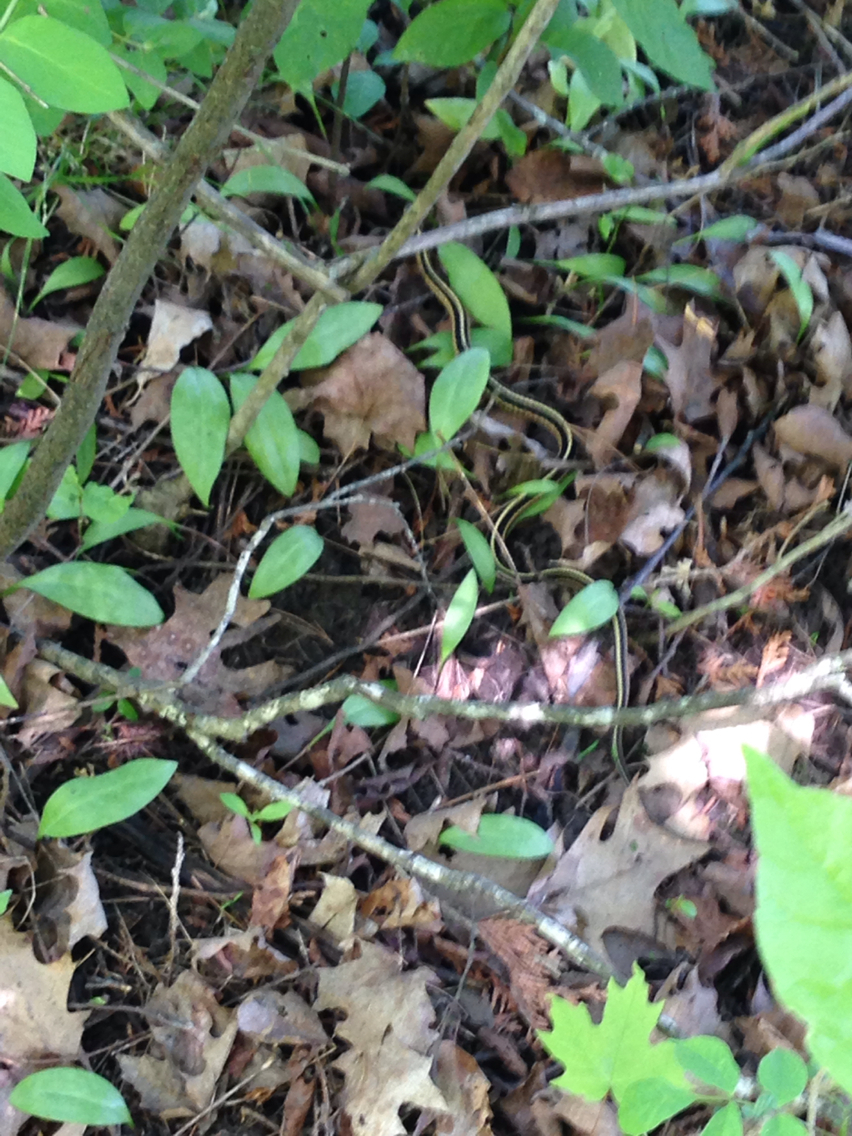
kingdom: Animalia
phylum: Chordata
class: Squamata
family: Colubridae
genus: Thamnophis
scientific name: Thamnophis sirtalis
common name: Common garter snake
